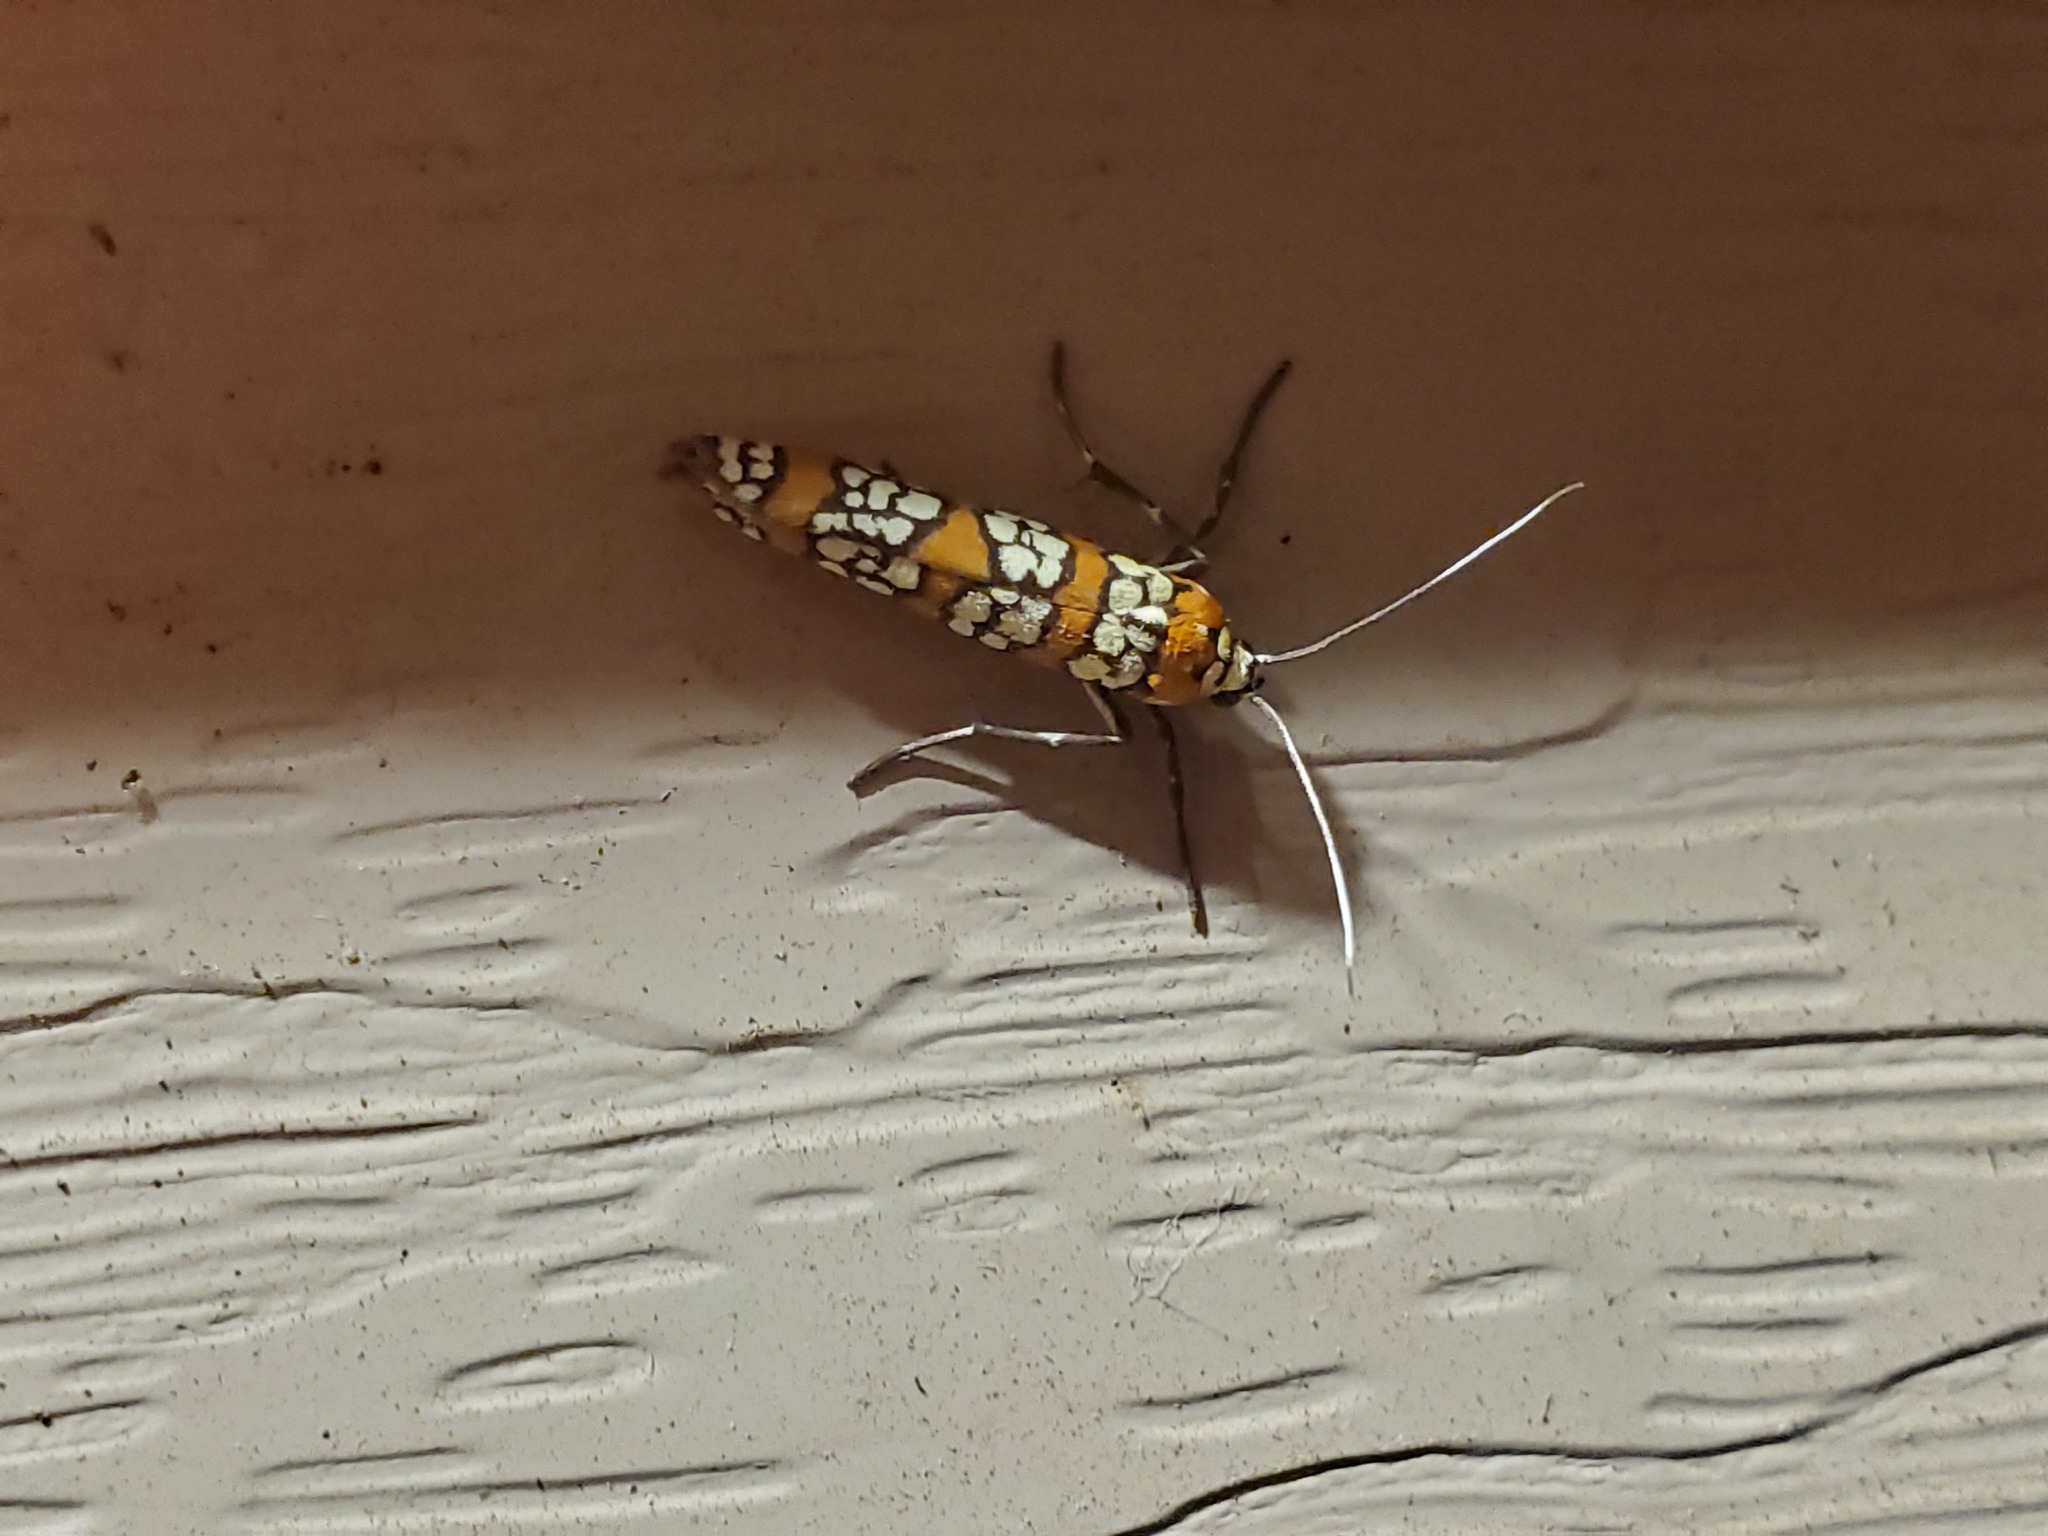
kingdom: Animalia
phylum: Arthropoda
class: Insecta
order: Lepidoptera
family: Attevidae
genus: Atteva
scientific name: Atteva punctella
